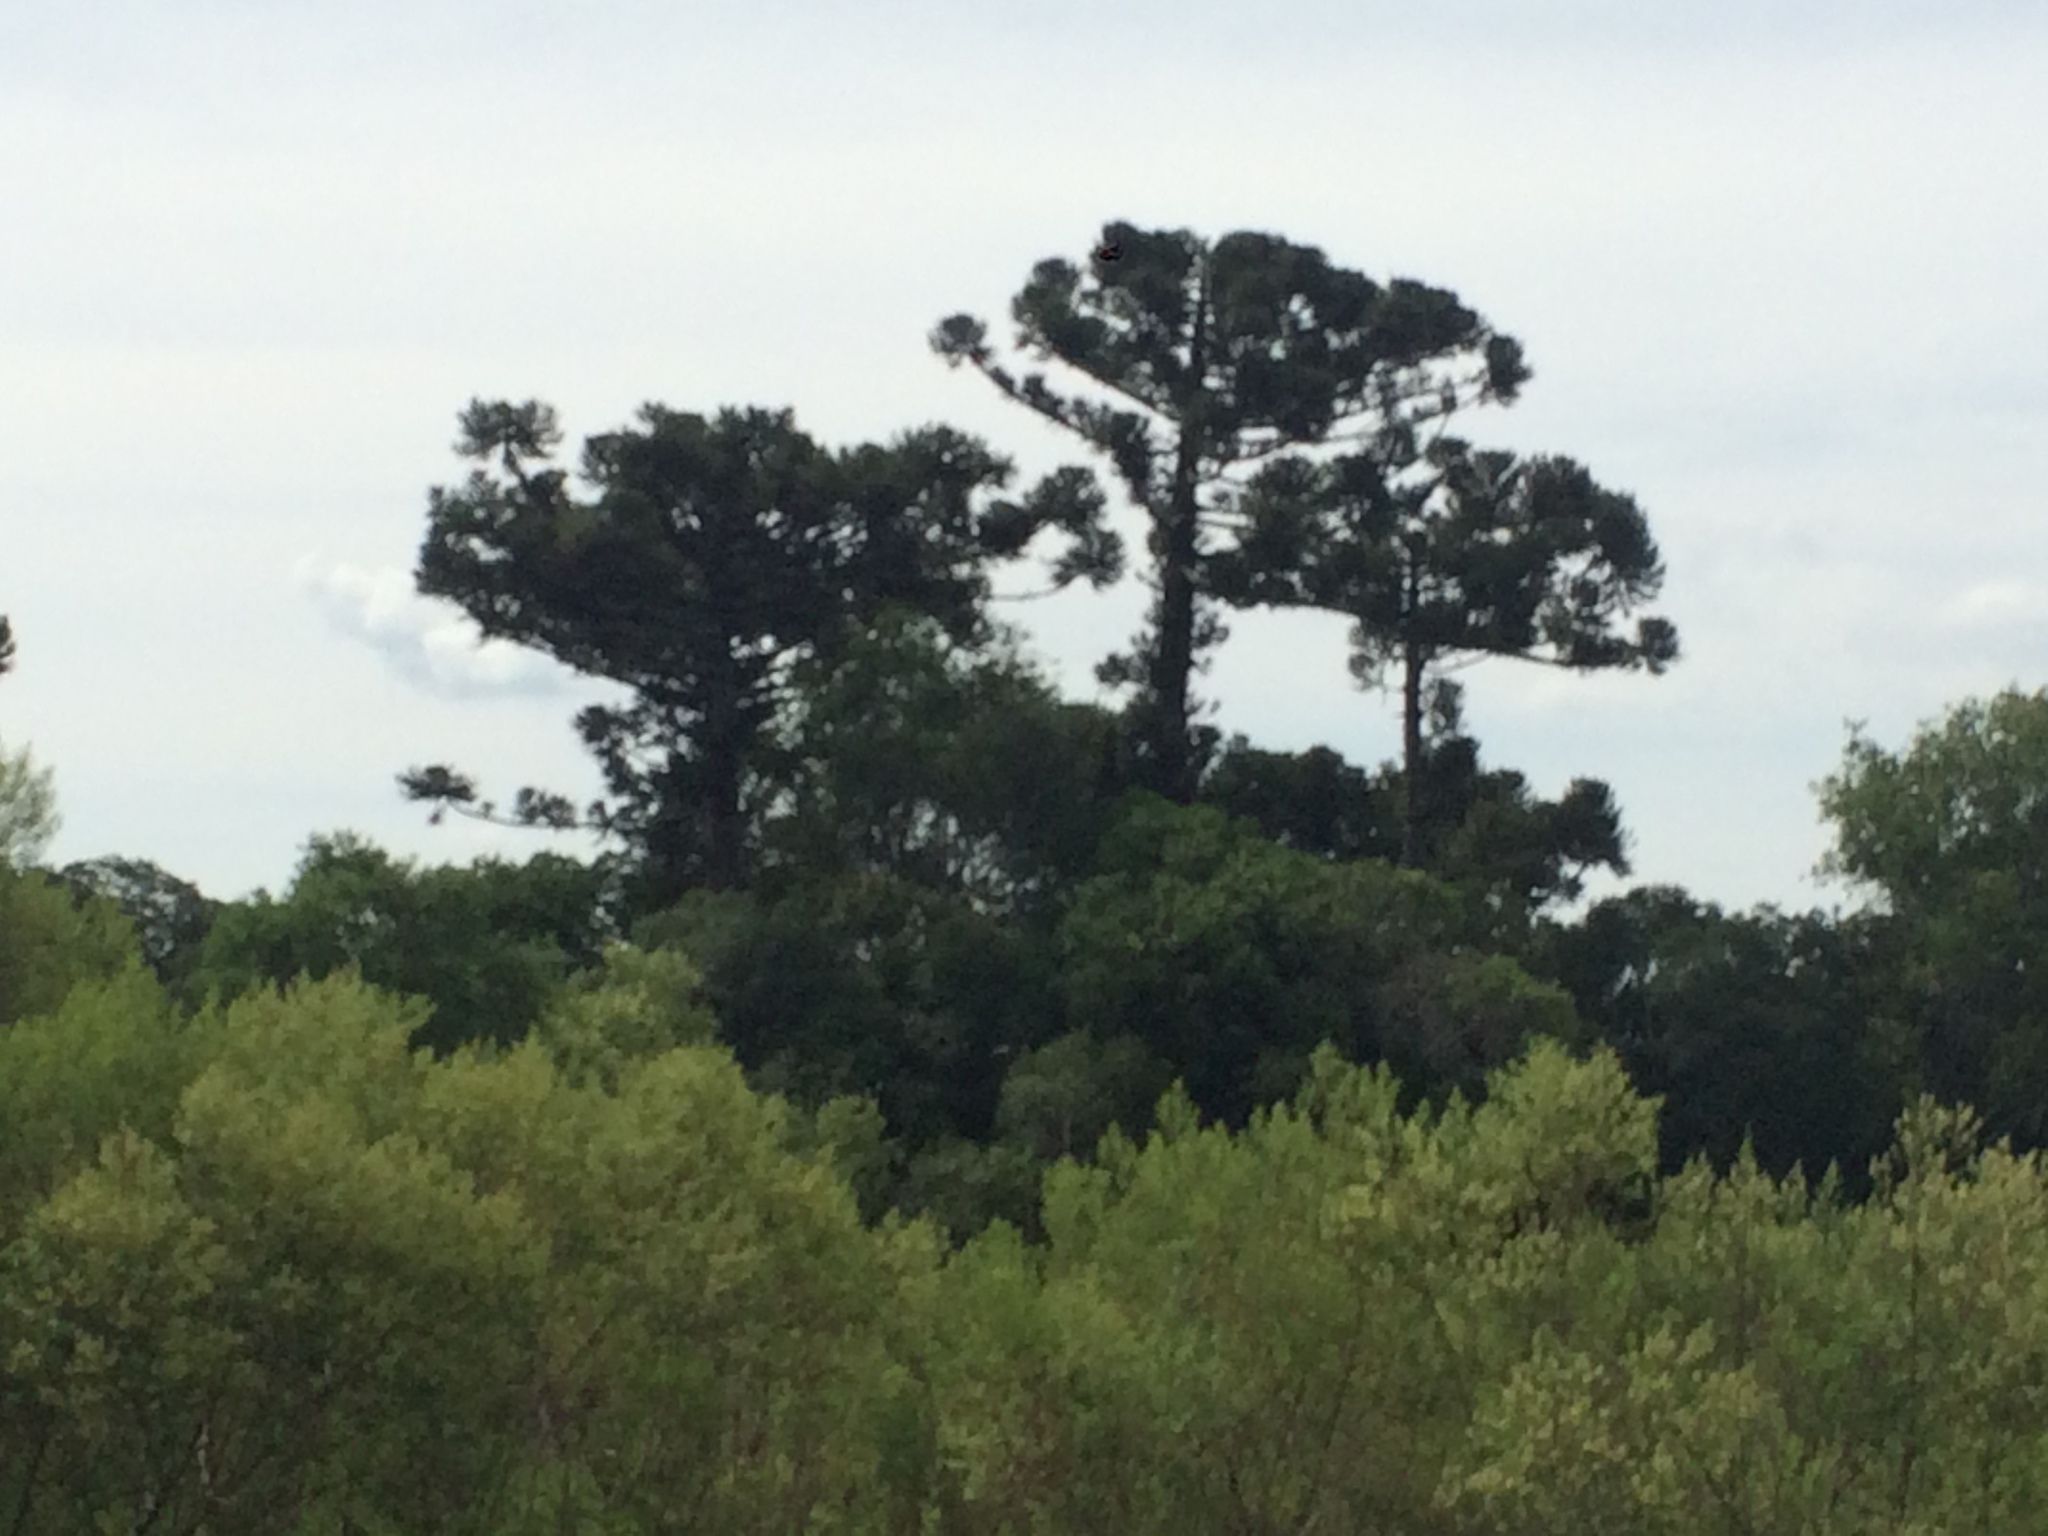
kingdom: Plantae
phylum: Tracheophyta
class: Pinopsida
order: Pinales
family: Araucariaceae
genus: Araucaria
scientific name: Araucaria angustifolia
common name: Candelabra tree
